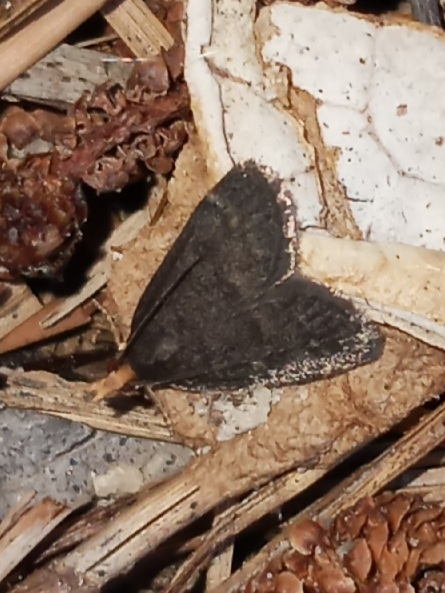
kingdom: Animalia
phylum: Arthropoda
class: Insecta
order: Lepidoptera
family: Crambidae
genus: Pyrausta
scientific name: Pyrausta merrickalis
